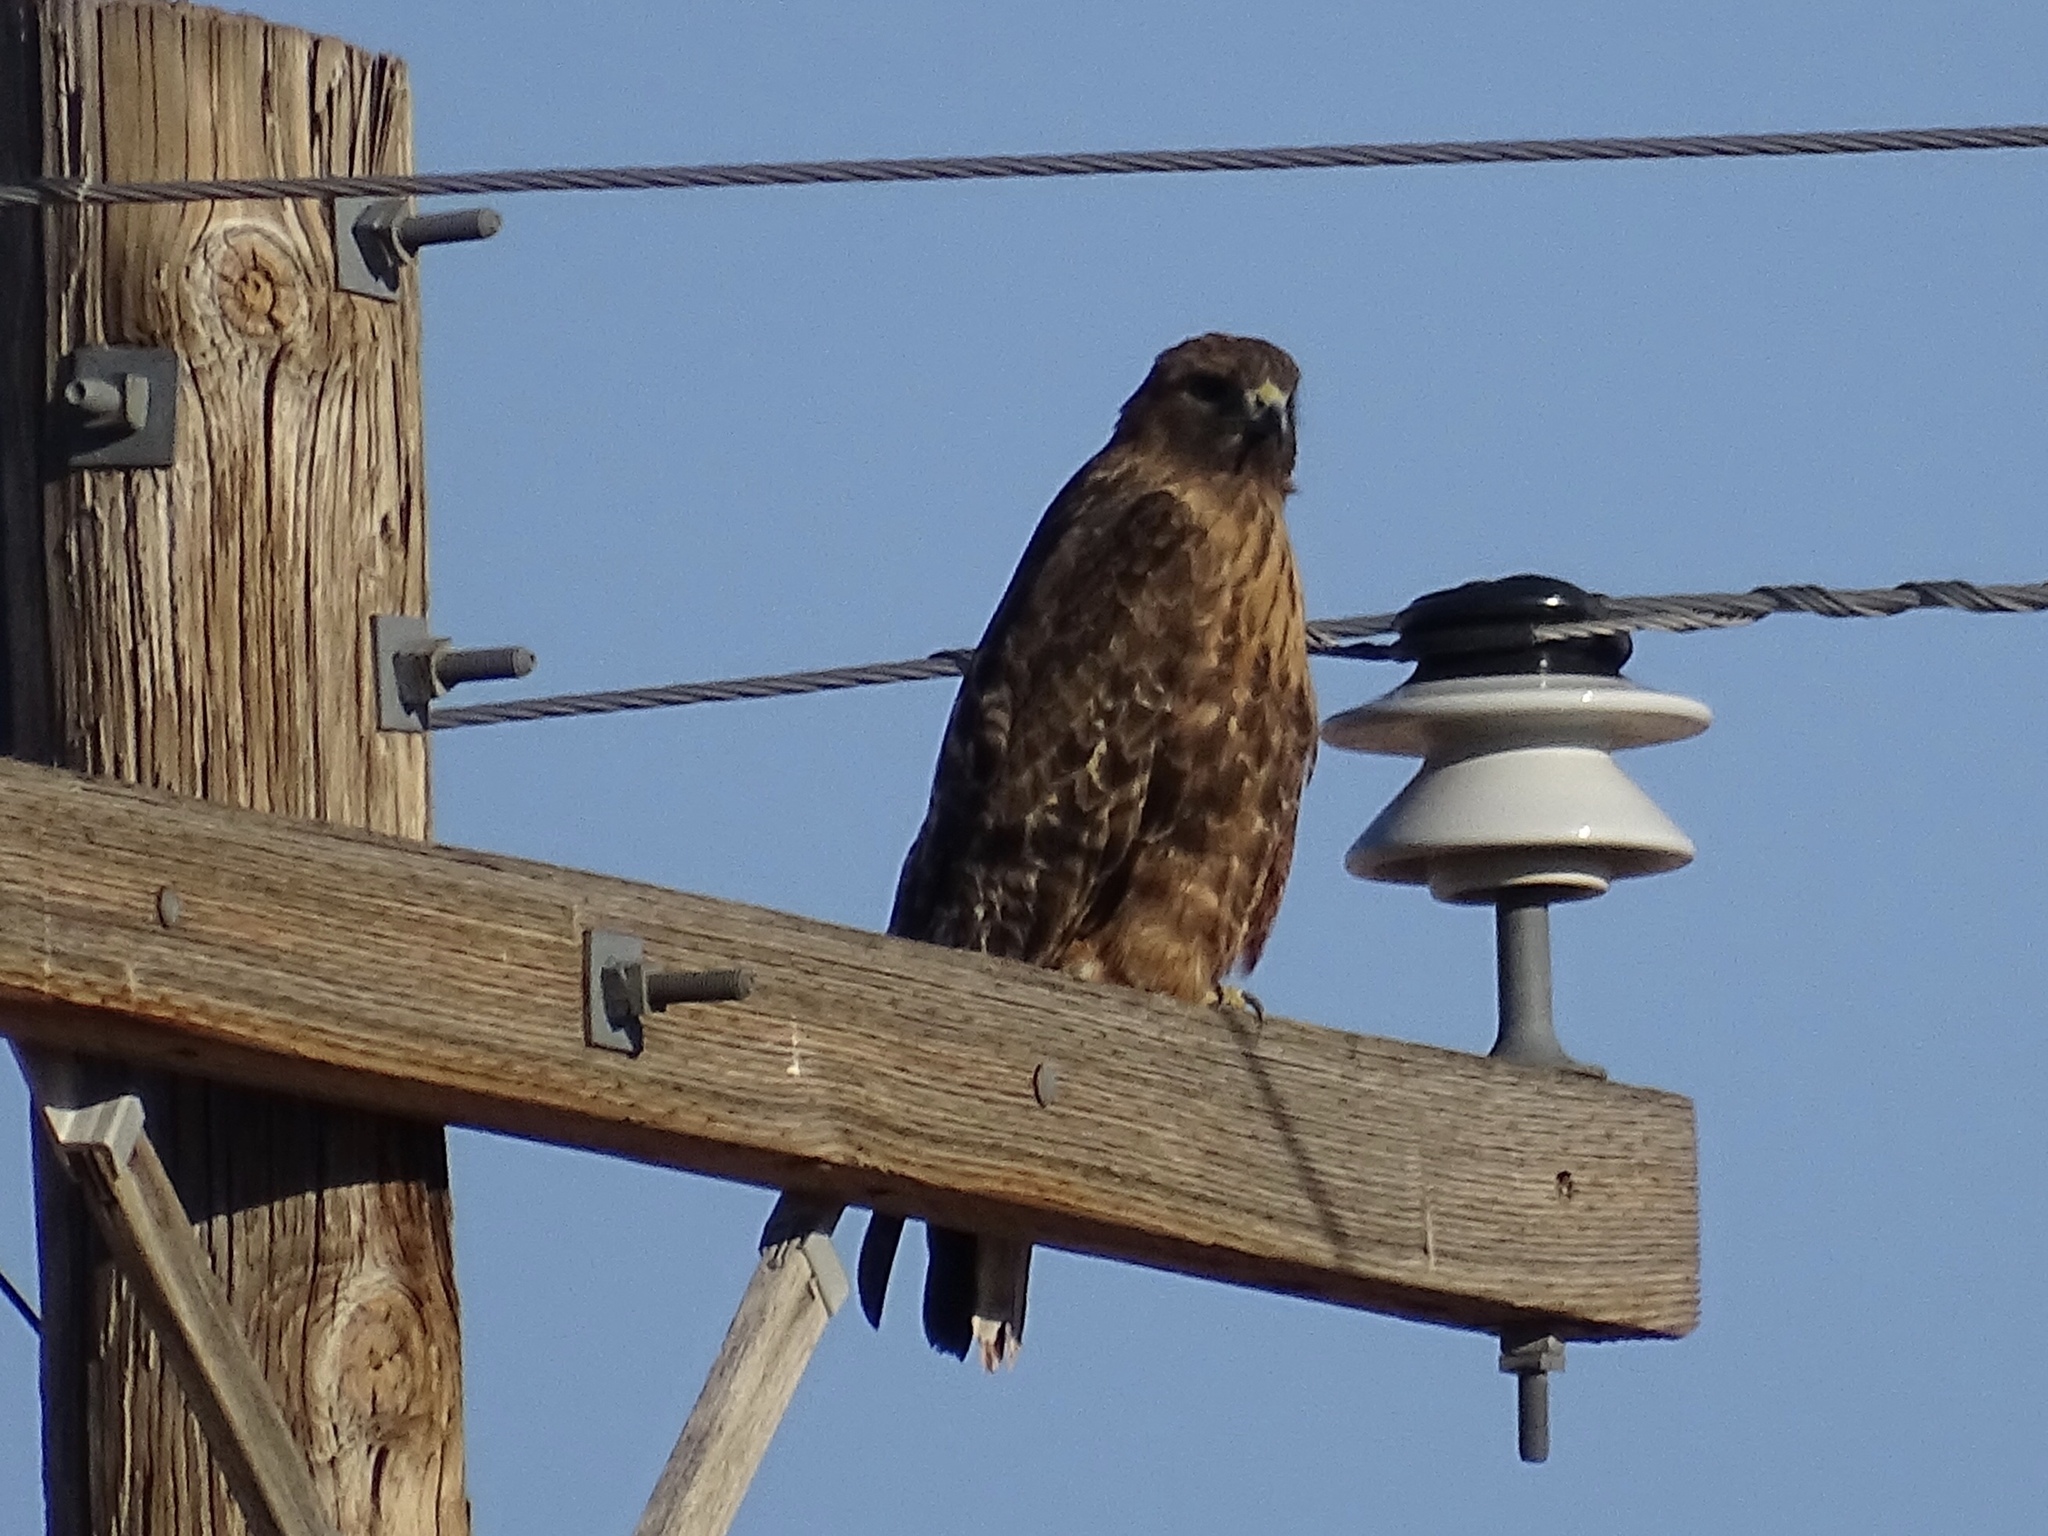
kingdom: Animalia
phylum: Chordata
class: Aves
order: Accipitriformes
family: Accipitridae
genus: Buteo
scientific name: Buteo jamaicensis
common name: Red-tailed hawk
